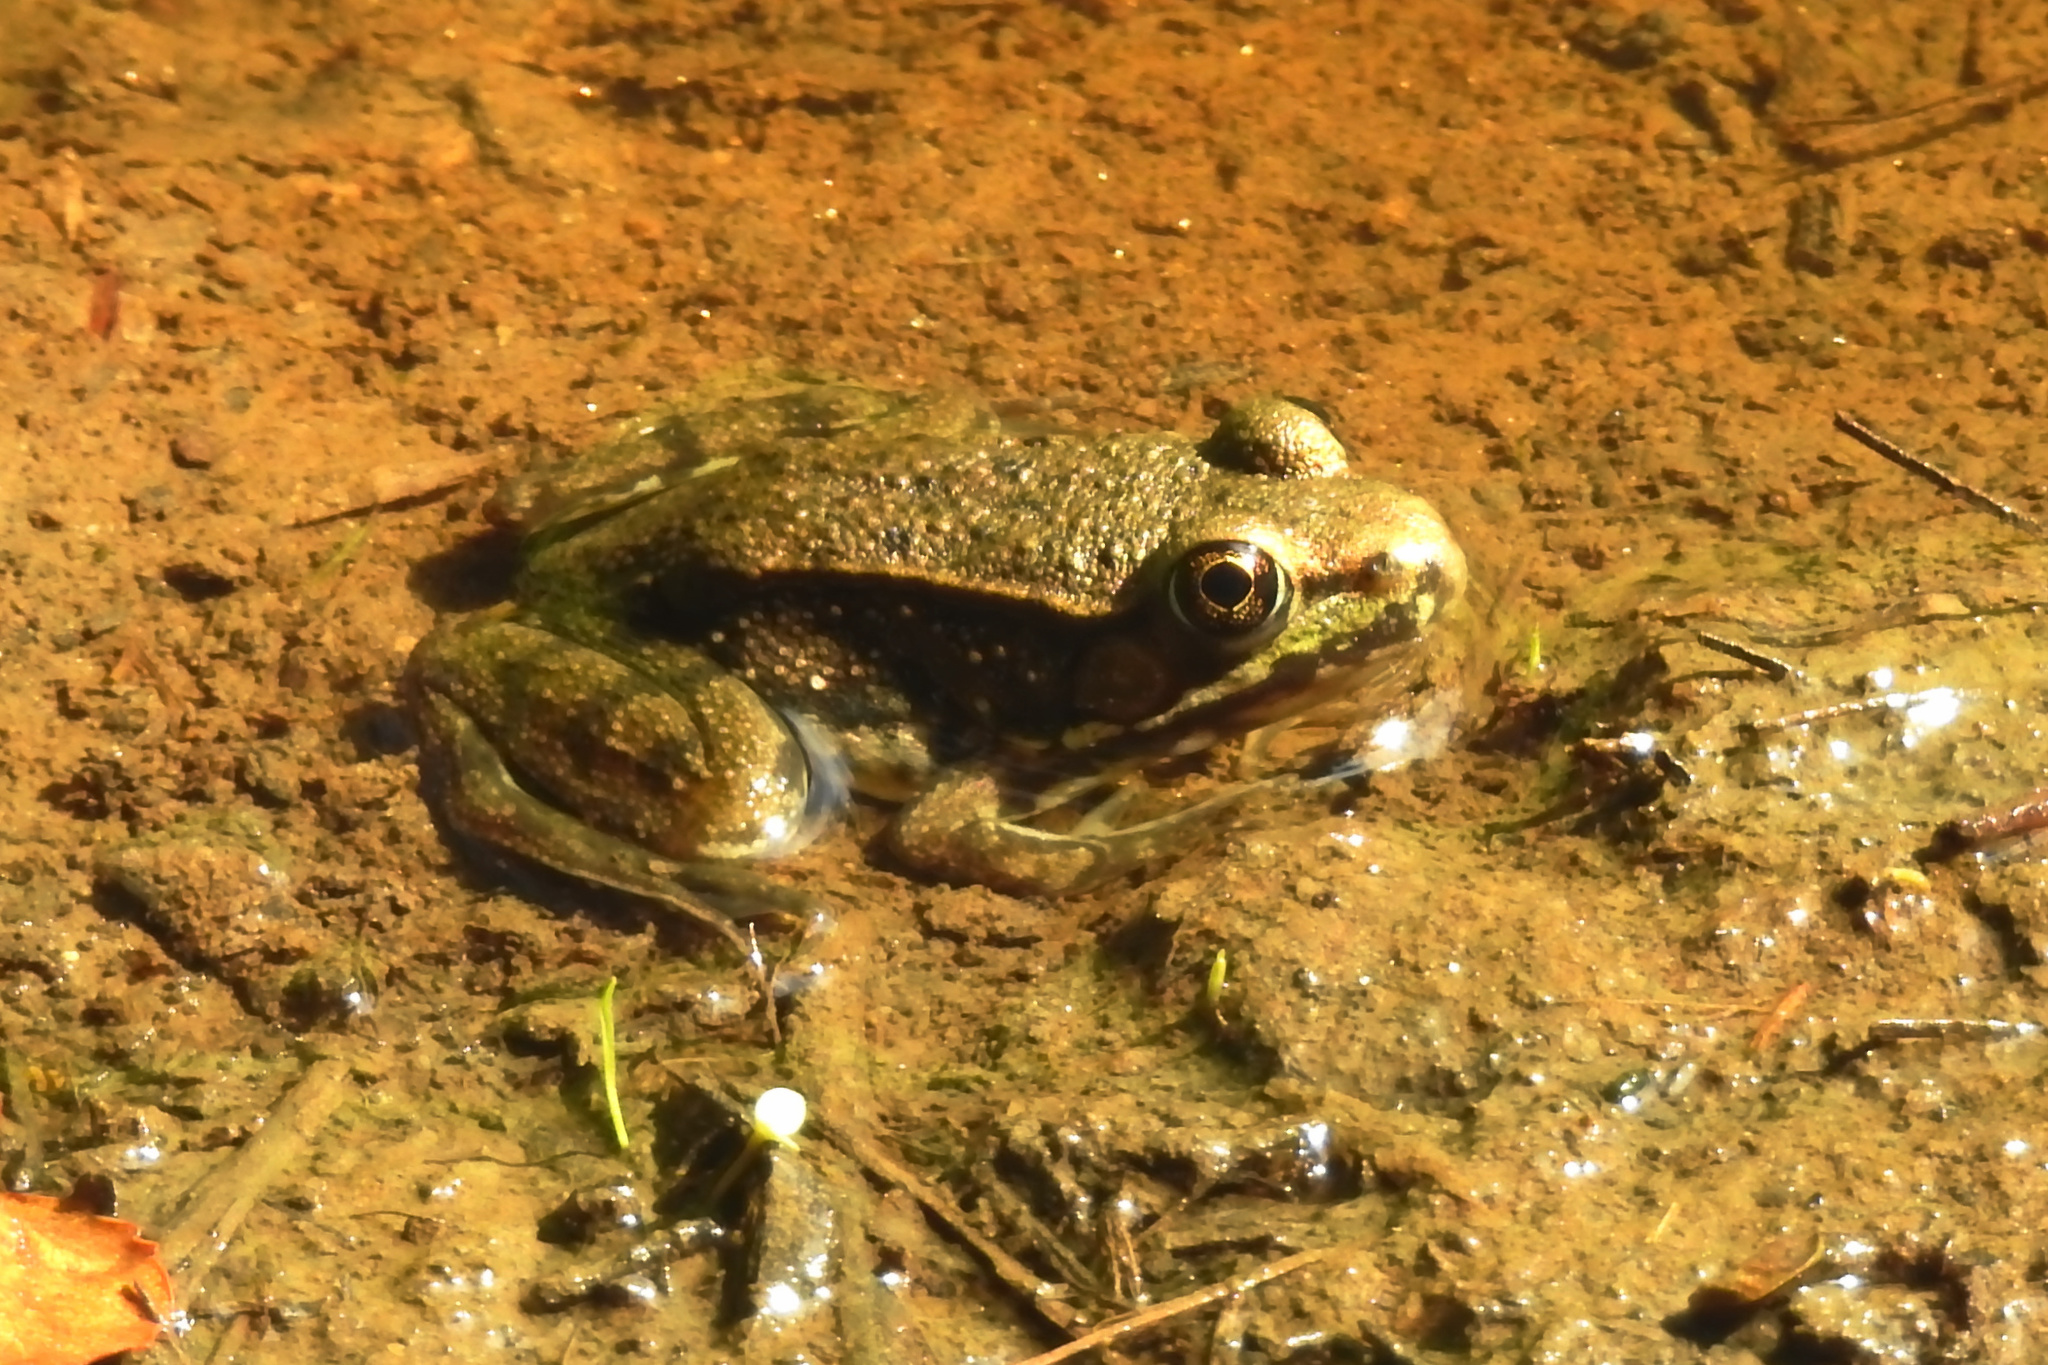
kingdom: Animalia
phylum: Chordata
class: Amphibia
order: Anura
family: Ranidae
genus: Lithobates
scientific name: Lithobates clamitans
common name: Green frog
